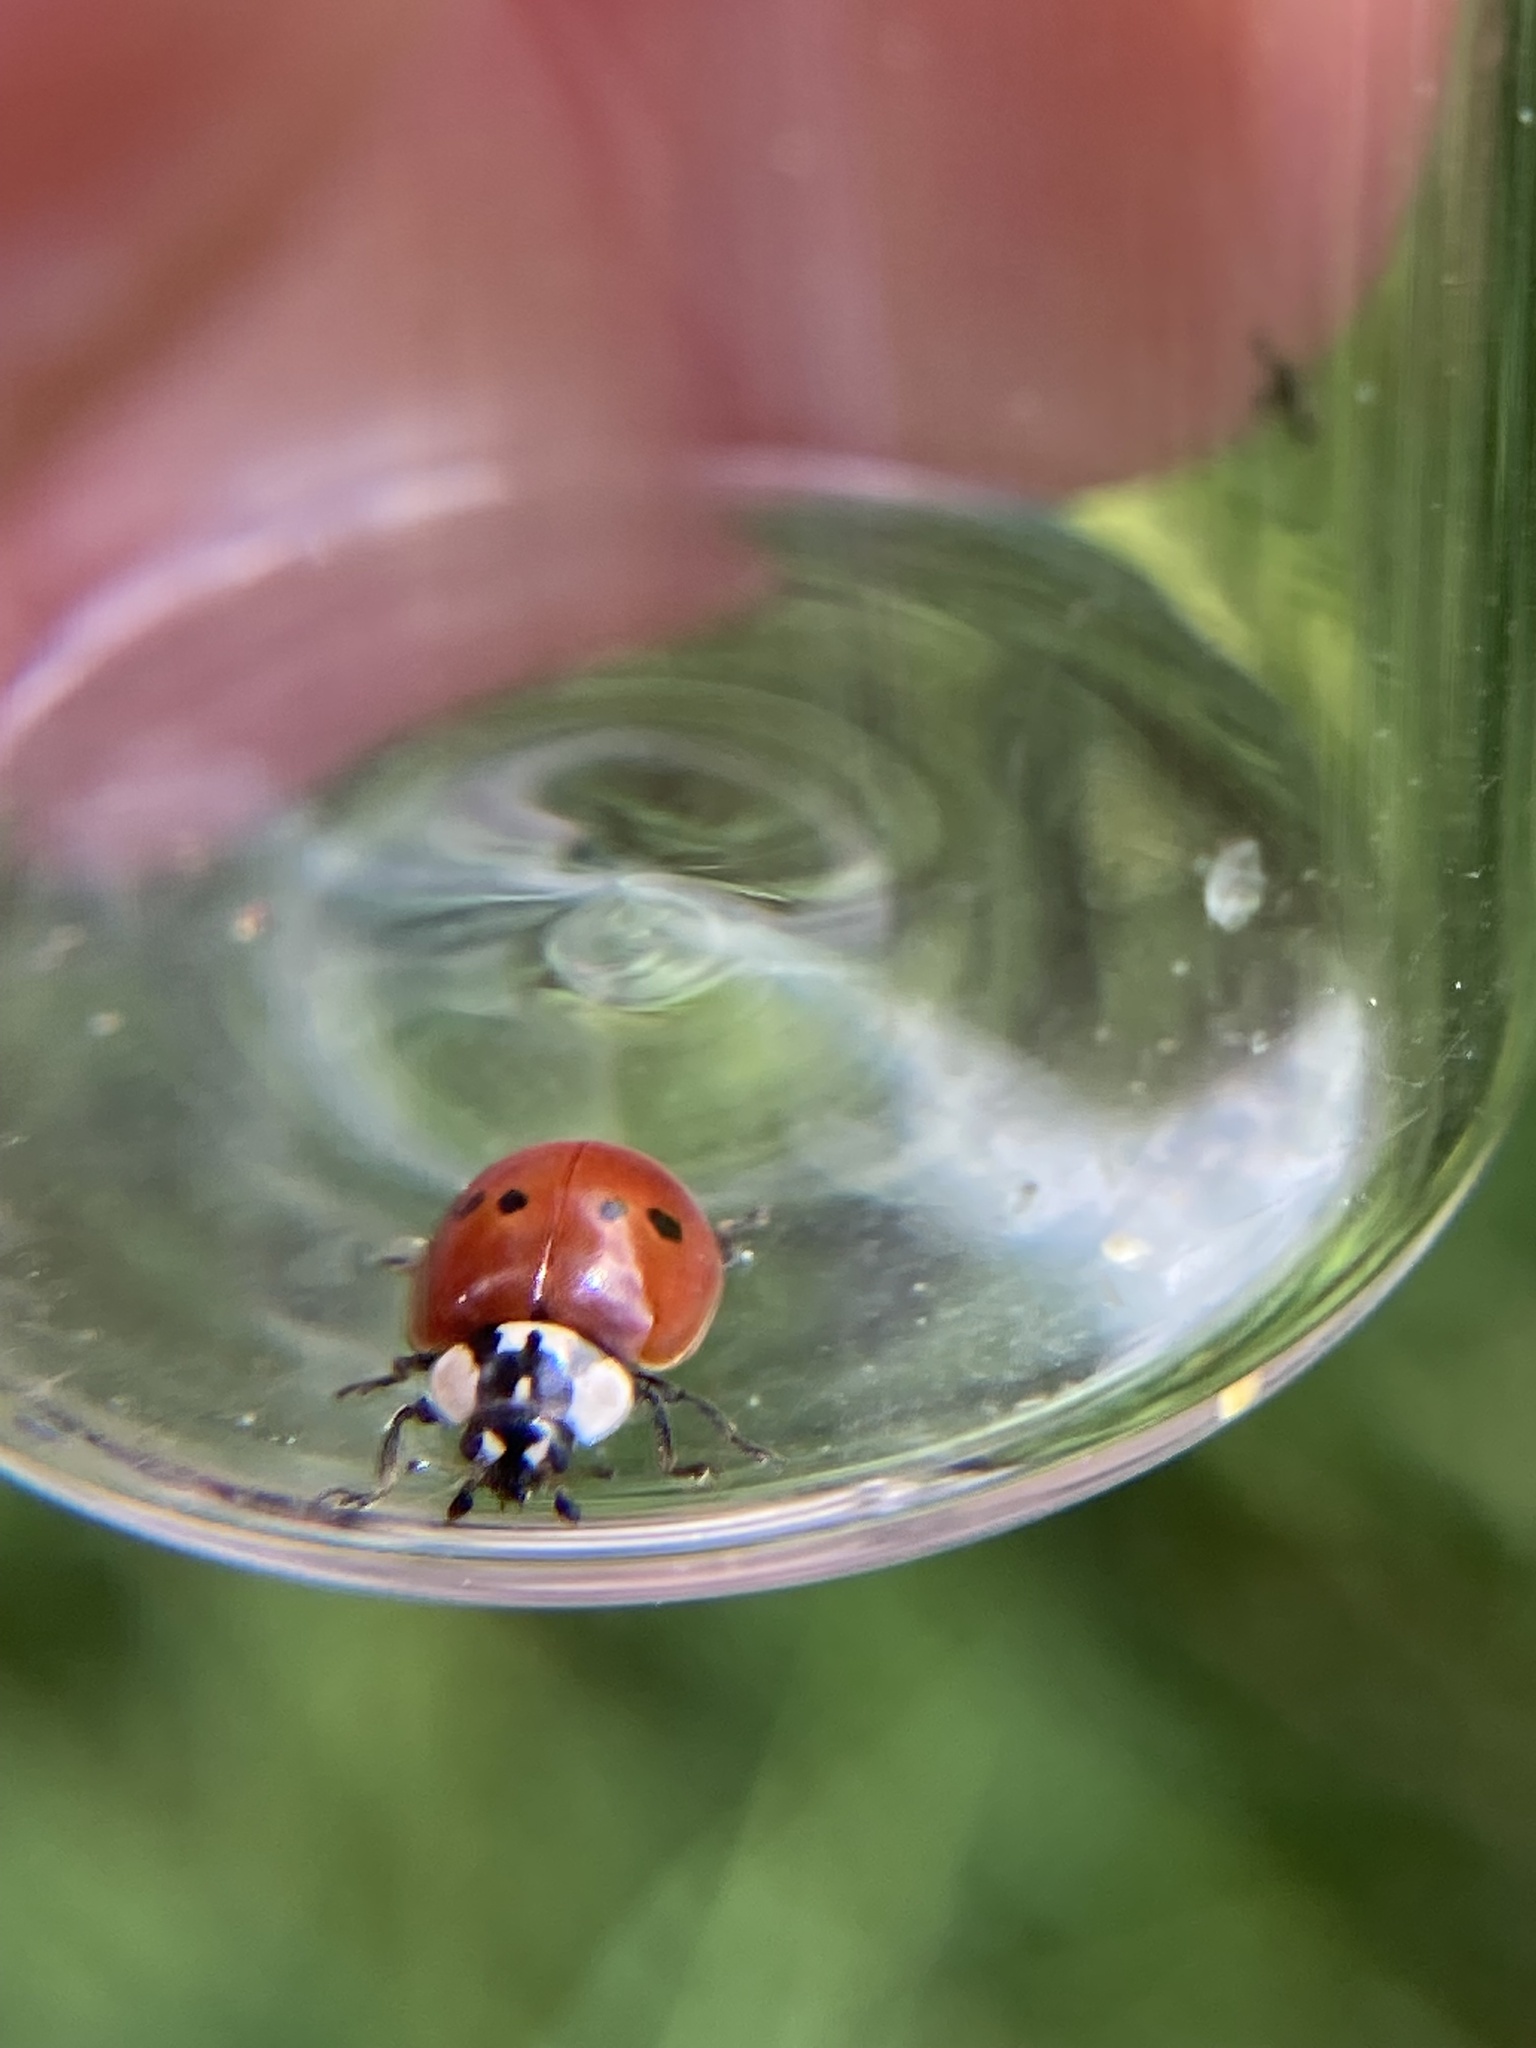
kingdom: Animalia
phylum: Arthropoda
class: Insecta
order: Coleoptera
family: Coccinellidae
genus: Adalia
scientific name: Adalia bipunctata
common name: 2-spot ladybird
